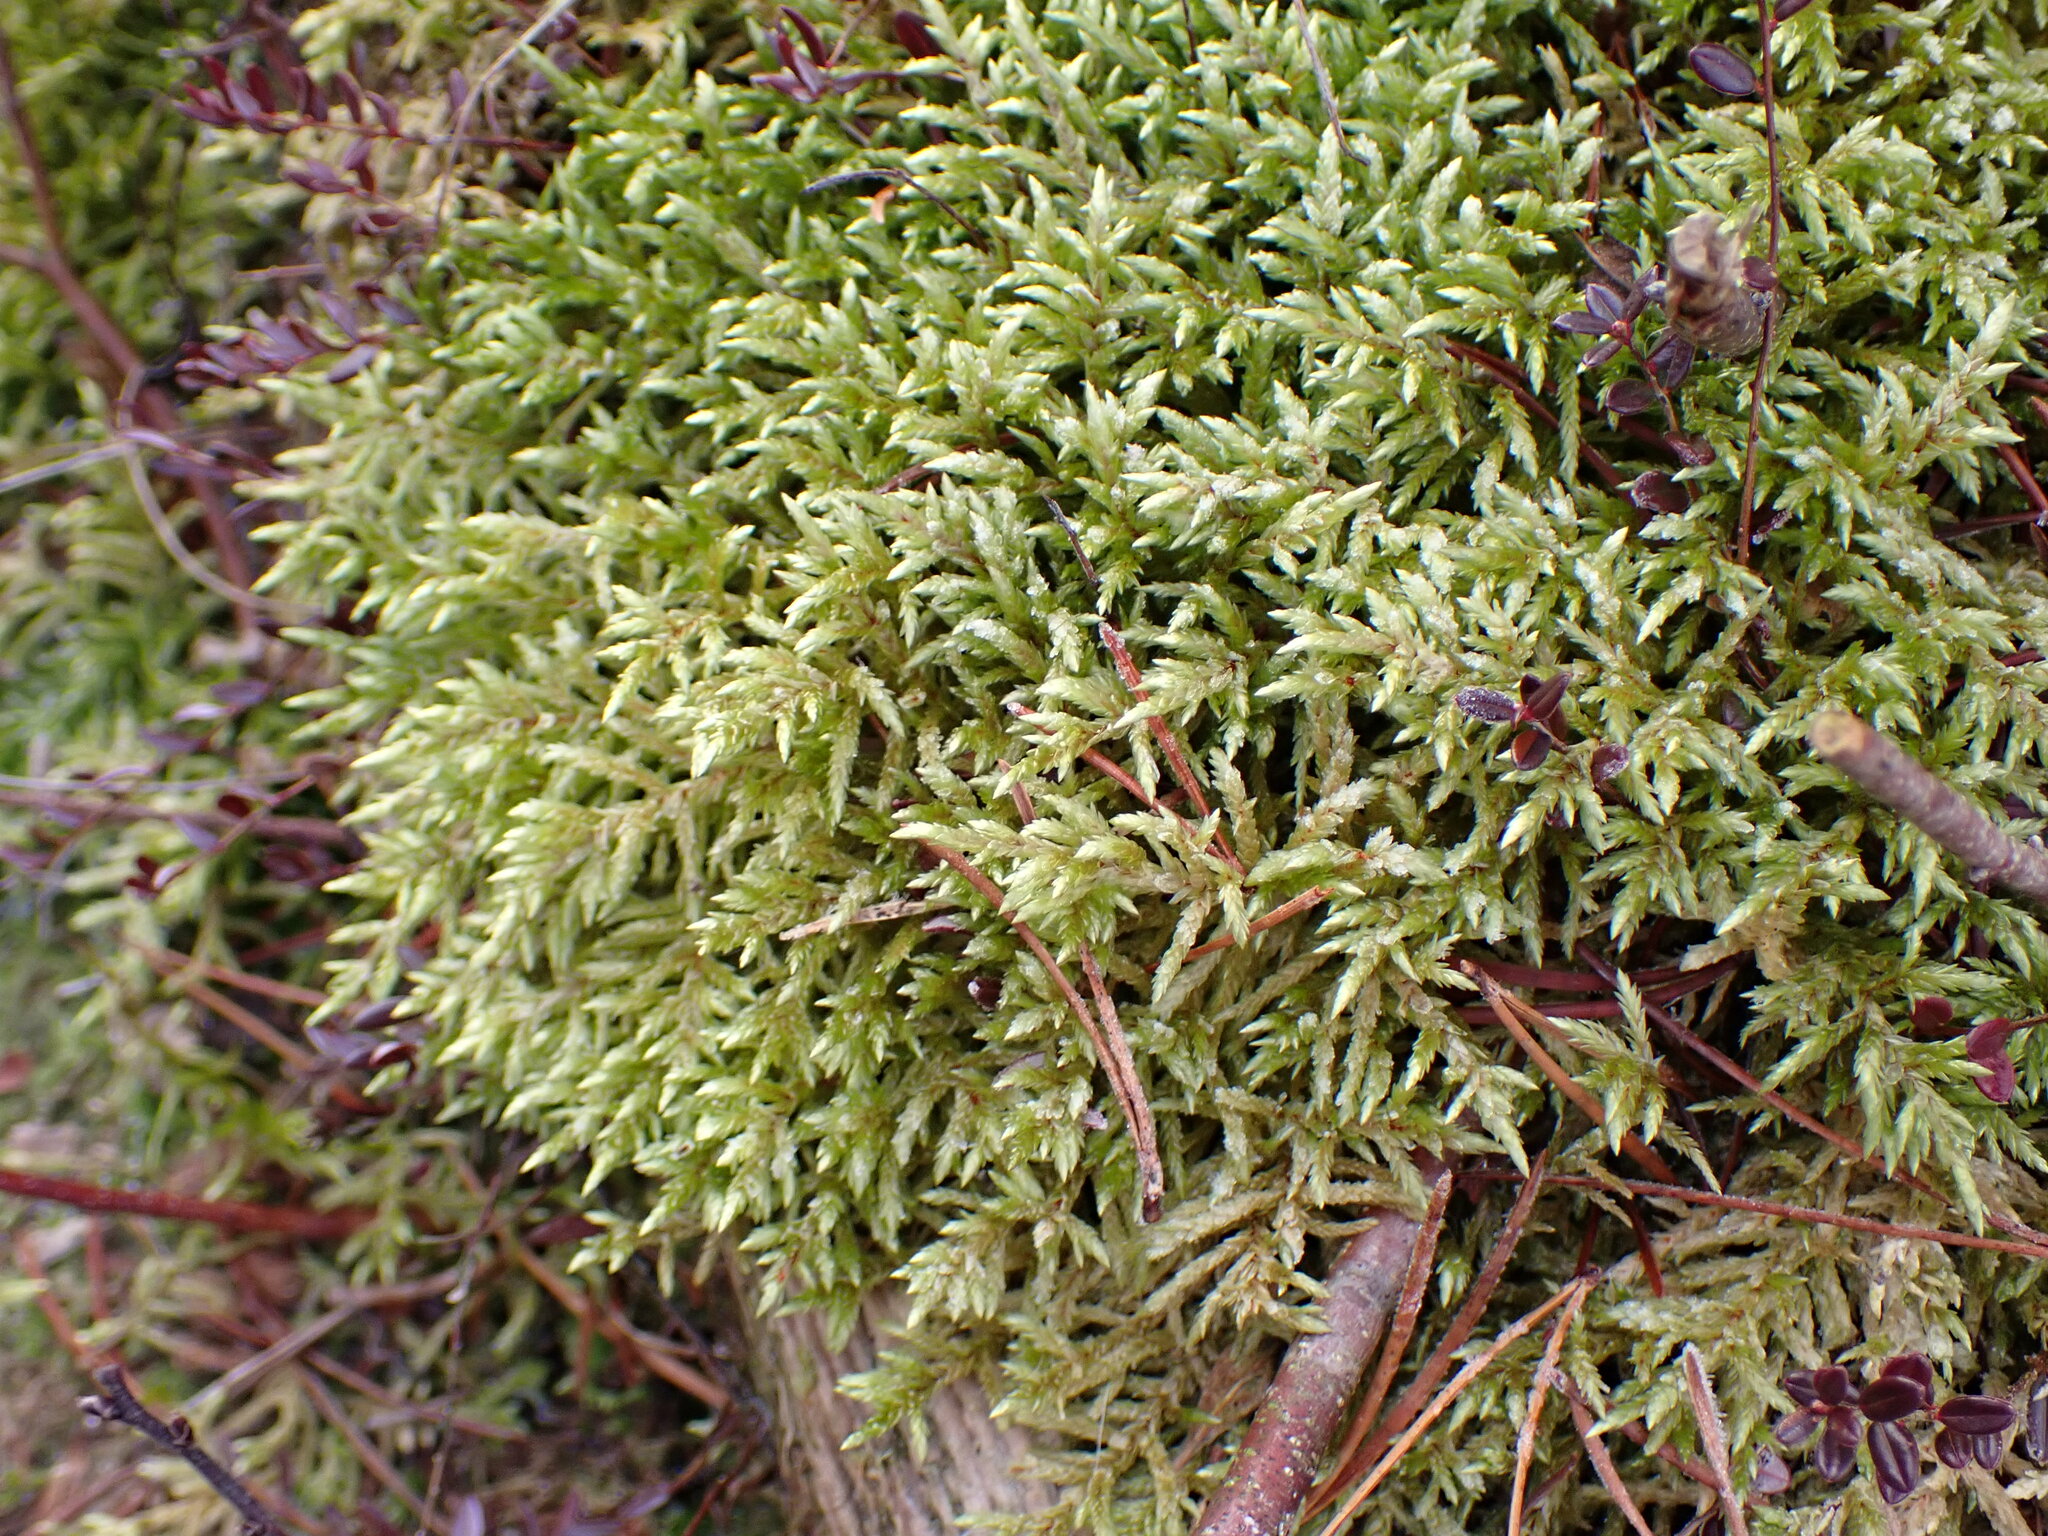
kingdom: Plantae
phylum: Bryophyta
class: Bryopsida
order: Hypnales
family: Hylocomiaceae
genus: Pleurozium
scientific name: Pleurozium schreberi
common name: Red-stemmed feather moss
